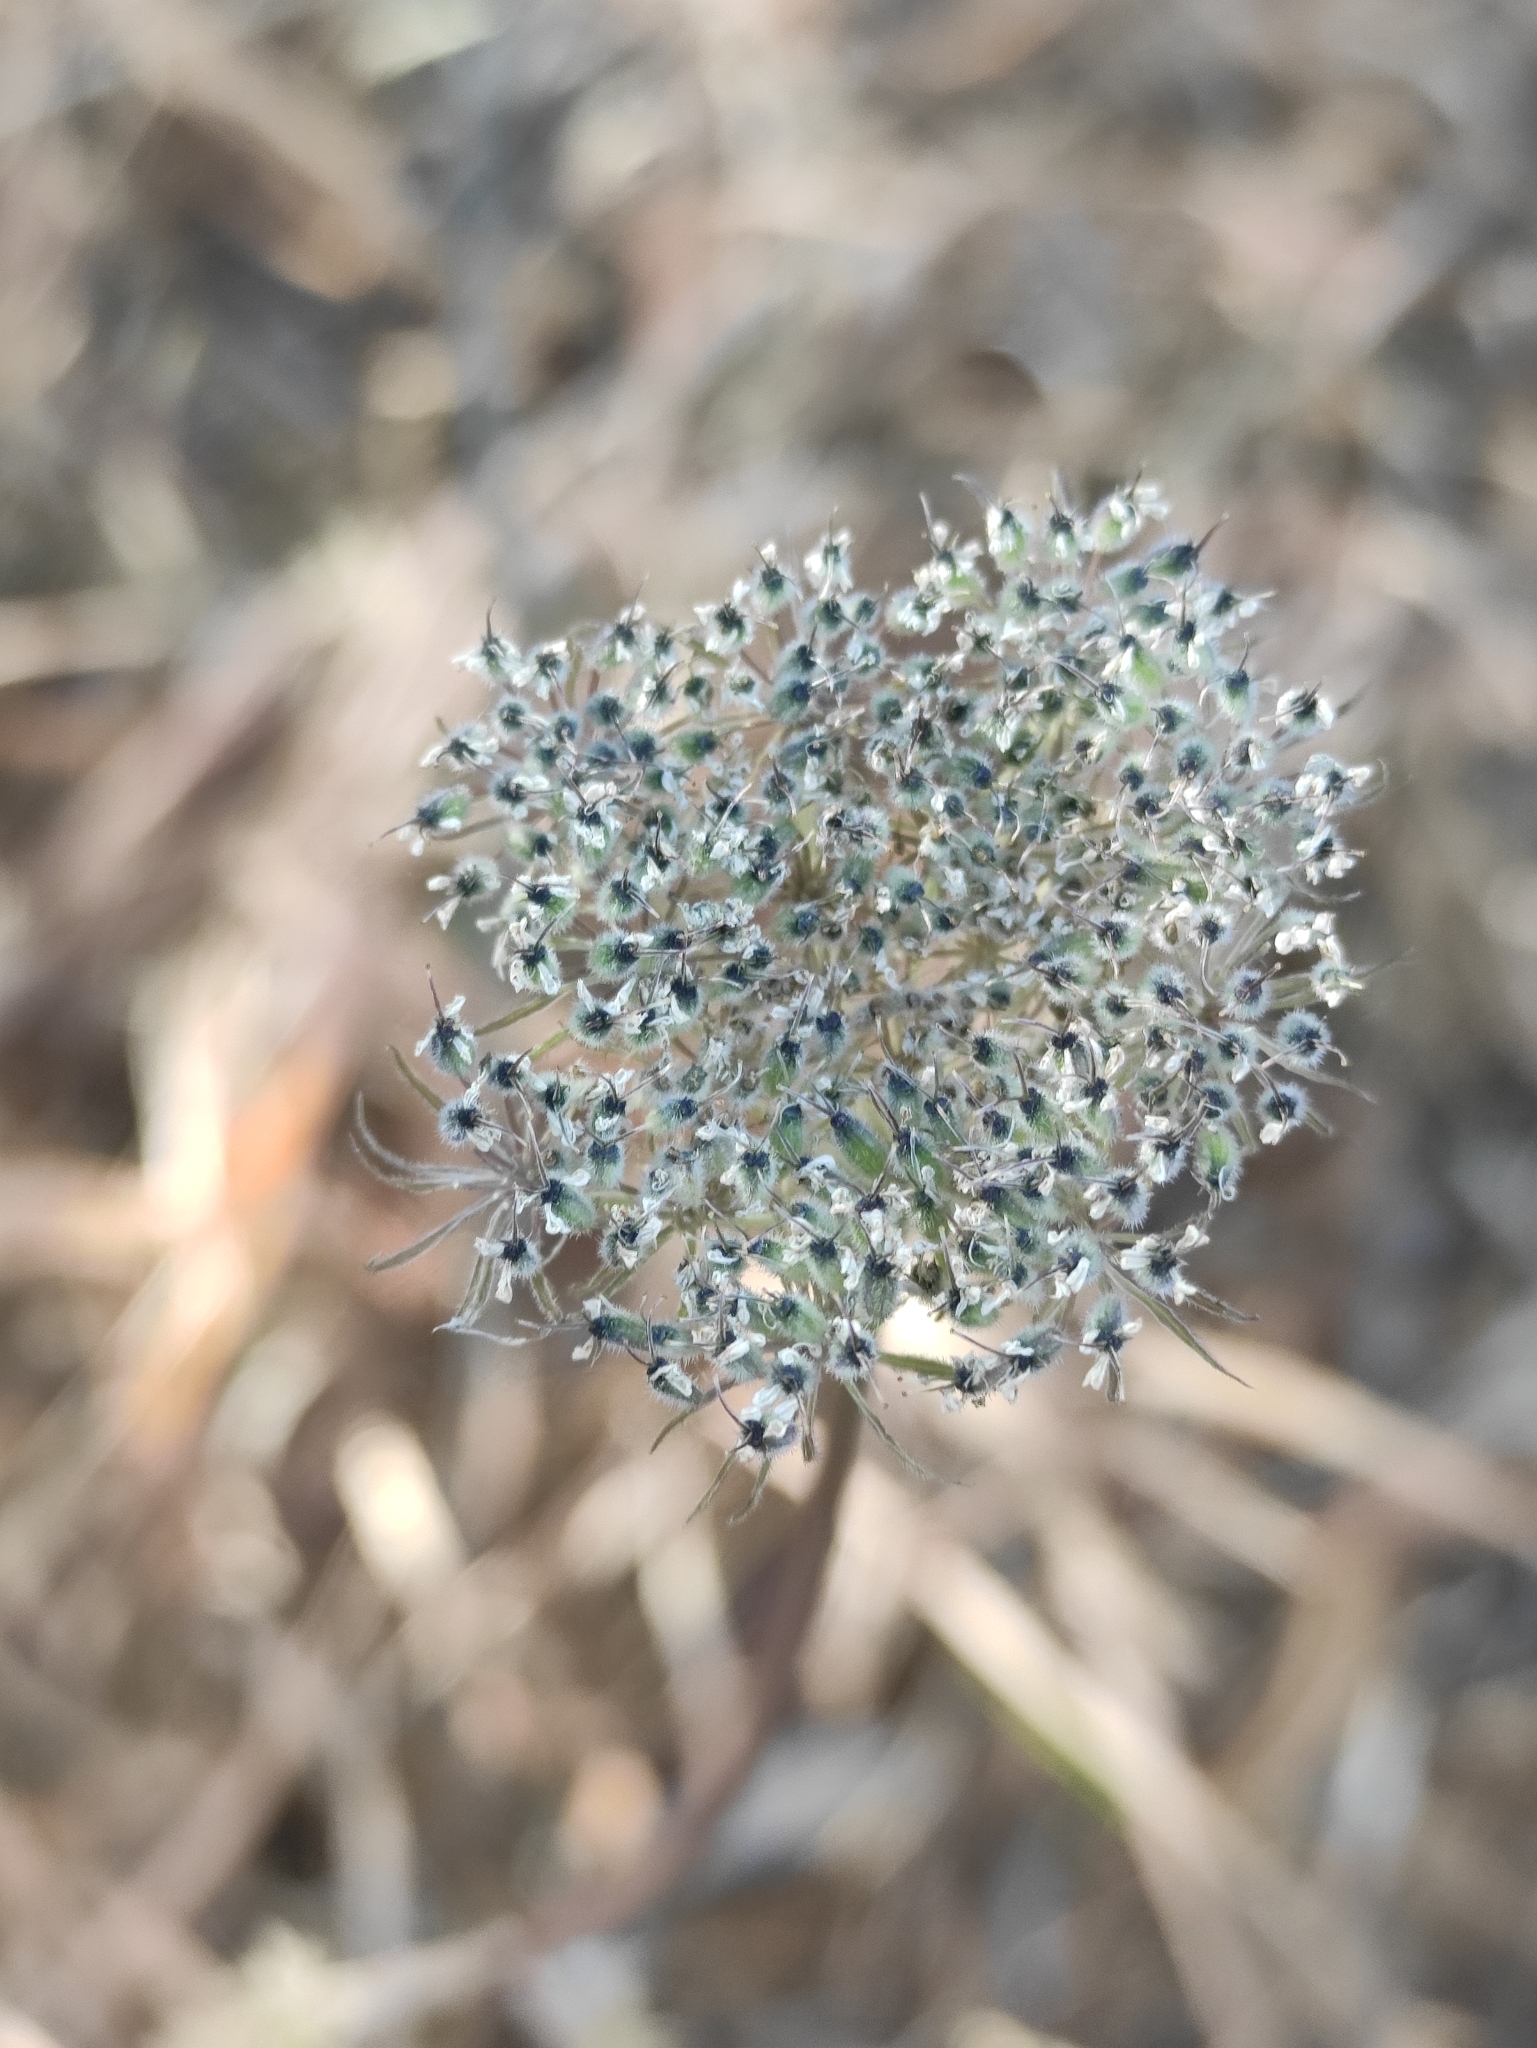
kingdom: Plantae
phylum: Tracheophyta
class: Magnoliopsida
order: Apiales
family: Apiaceae
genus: Seseli
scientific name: Seseli condensatum
